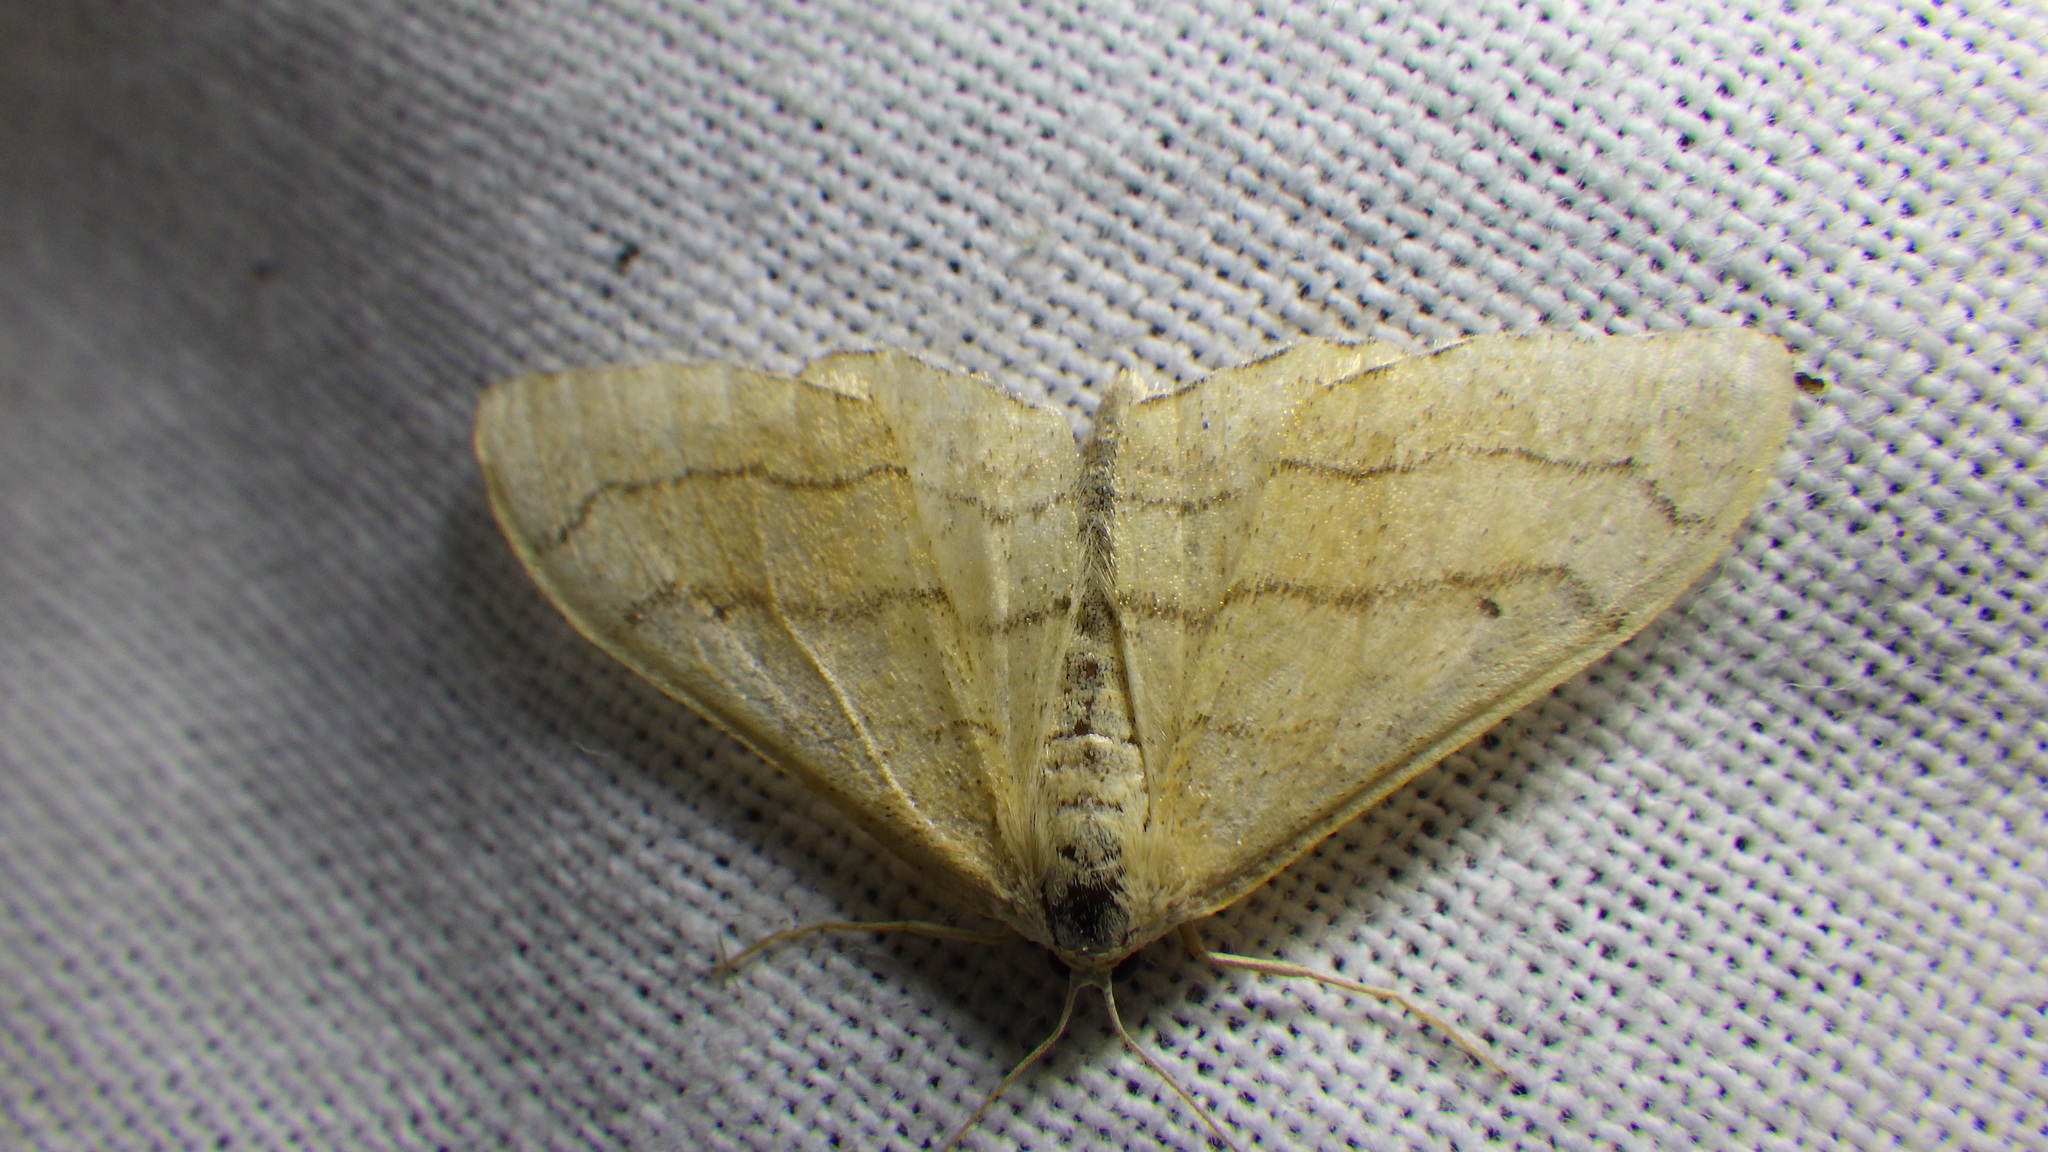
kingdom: Animalia
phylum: Arthropoda
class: Insecta
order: Lepidoptera
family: Geometridae
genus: Idaea
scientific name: Idaea aversata
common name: Riband wave
